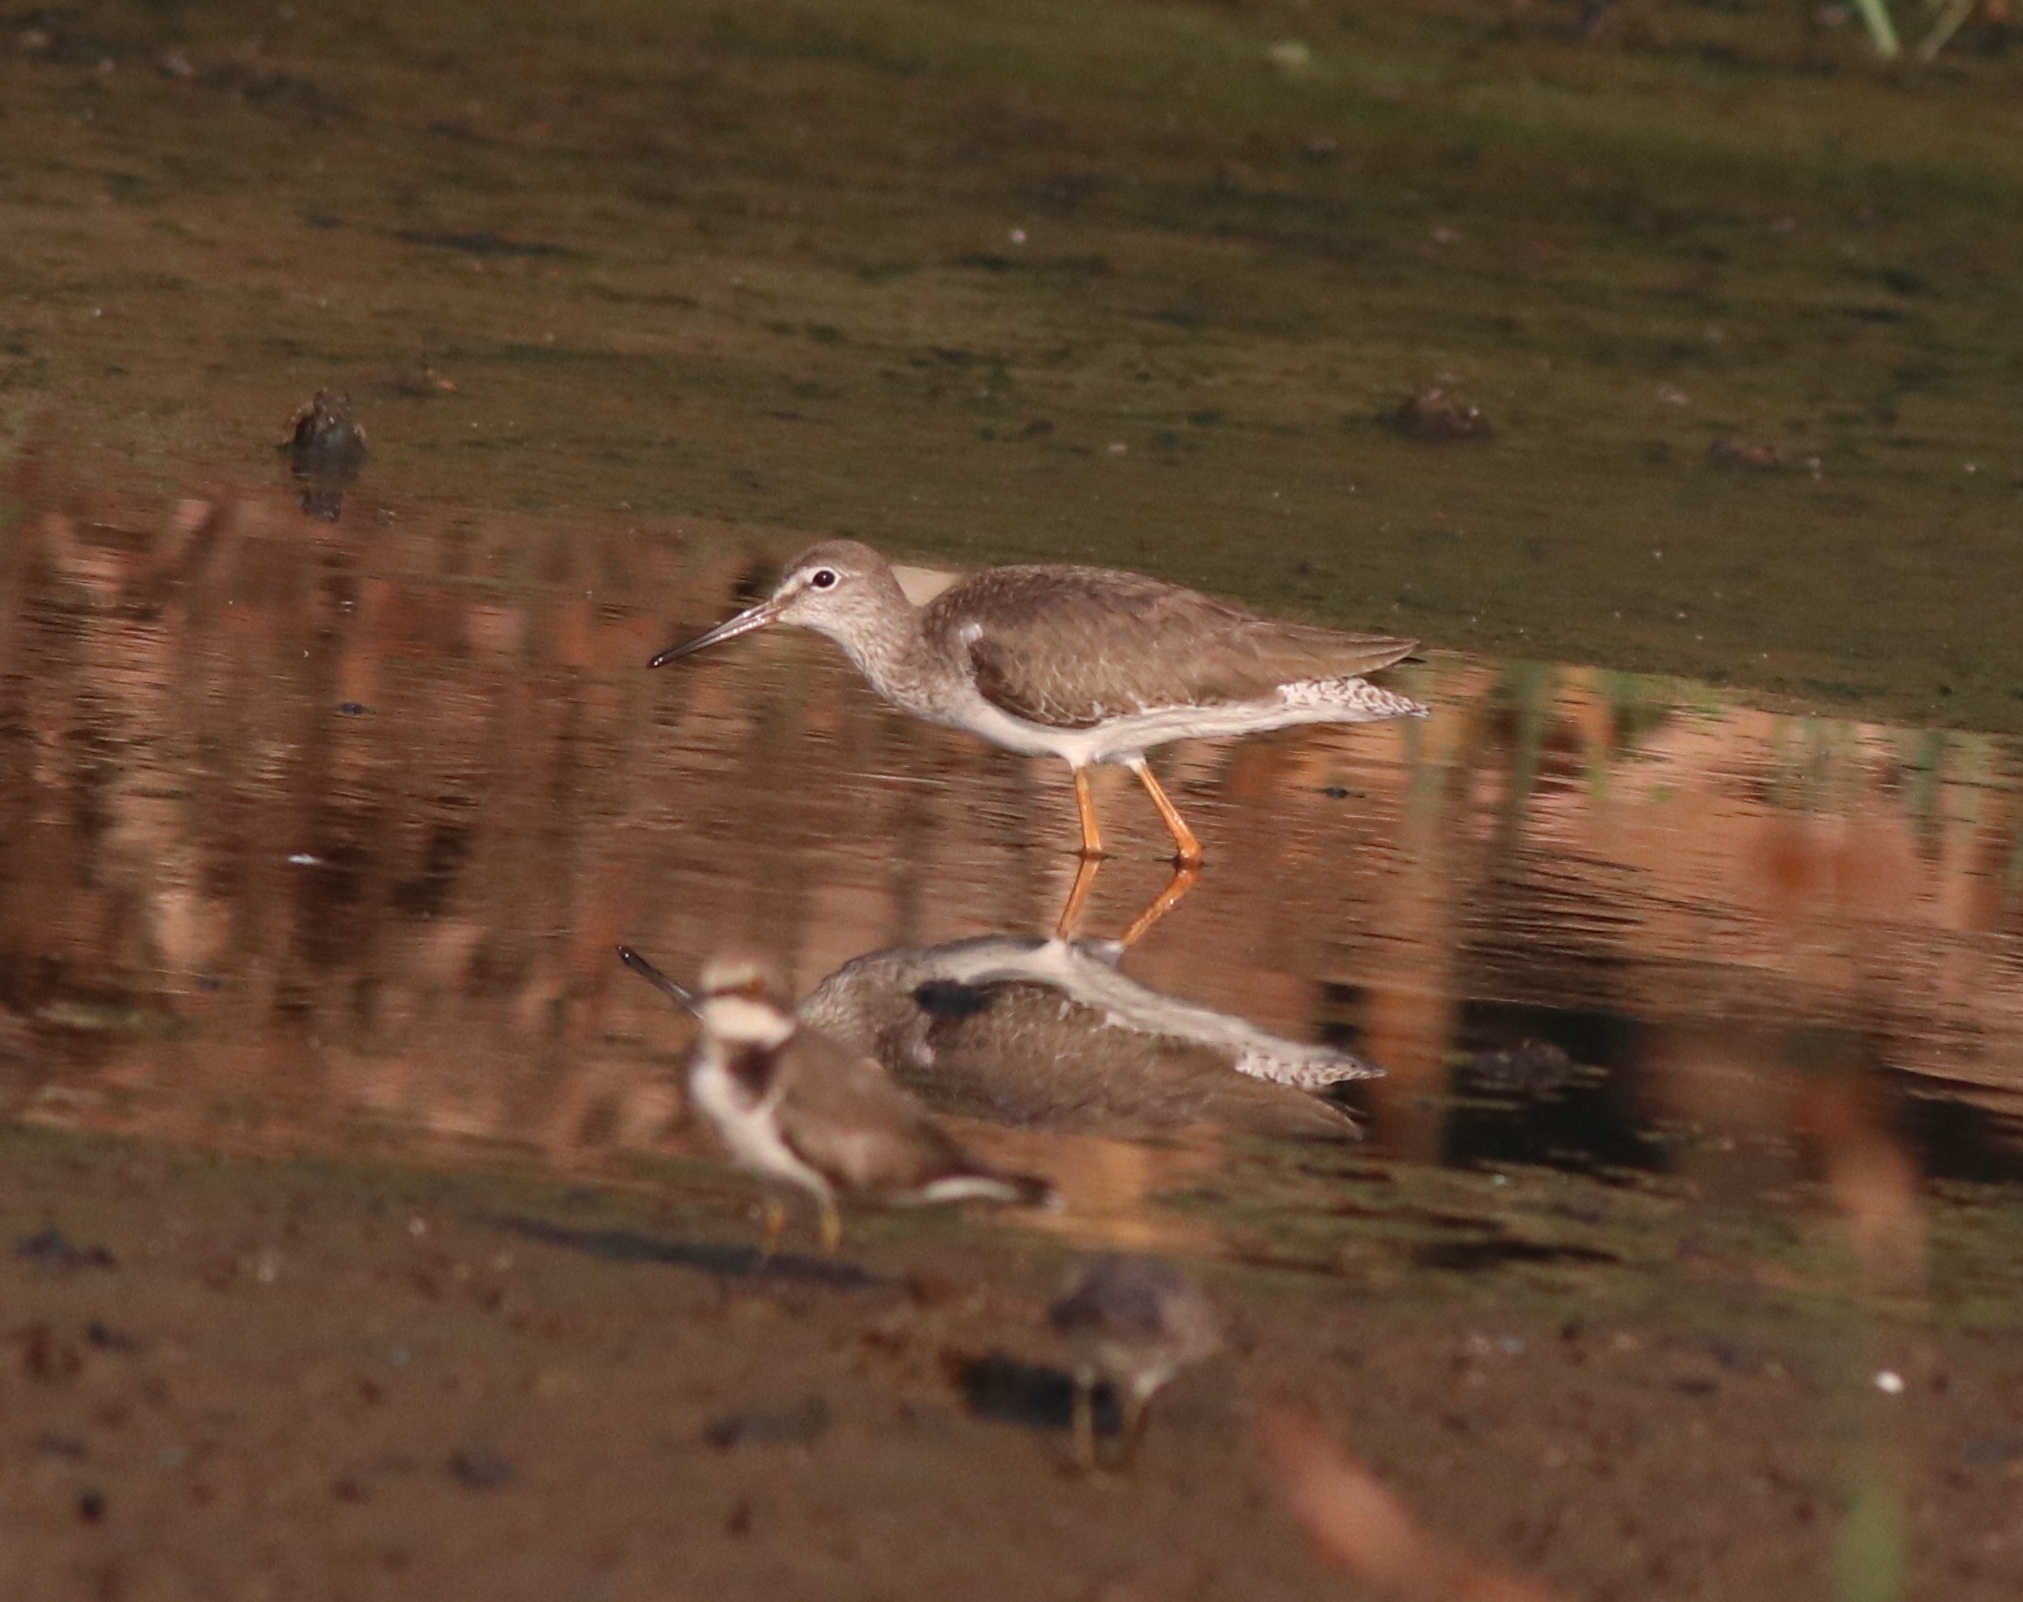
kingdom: Animalia
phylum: Chordata
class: Aves
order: Charadriiformes
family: Scolopacidae
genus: Tringa
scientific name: Tringa totanus
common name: Common redshank
